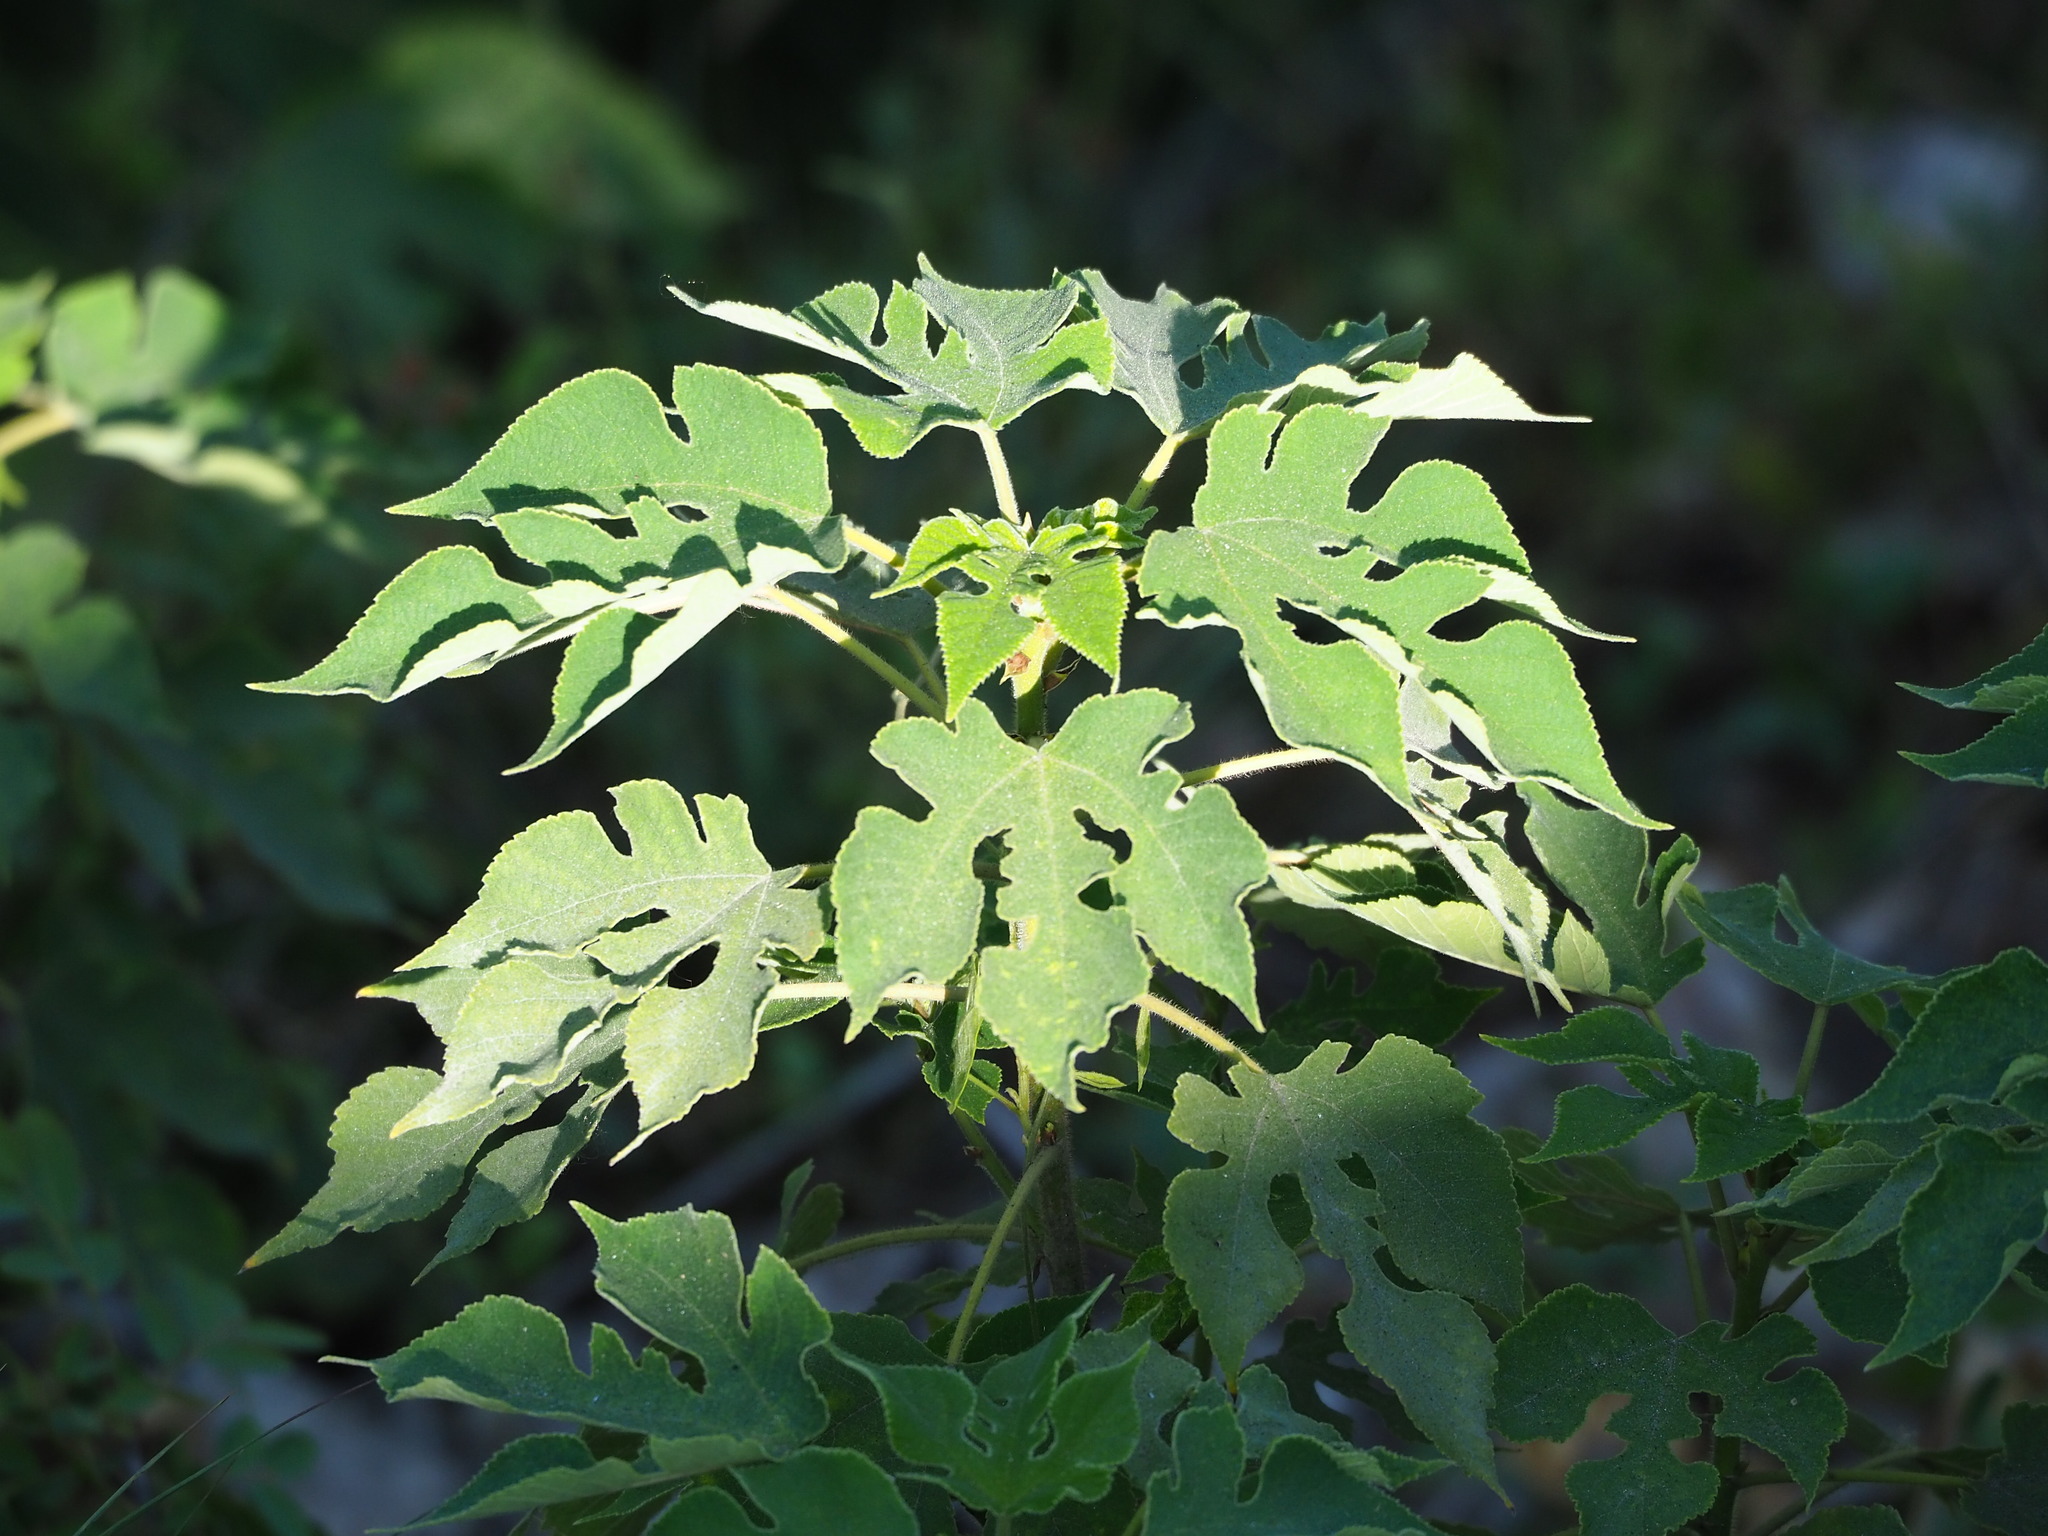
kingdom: Plantae
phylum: Tracheophyta
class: Magnoliopsida
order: Rosales
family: Moraceae
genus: Broussonetia
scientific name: Broussonetia papyrifera
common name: Paper mulberry
